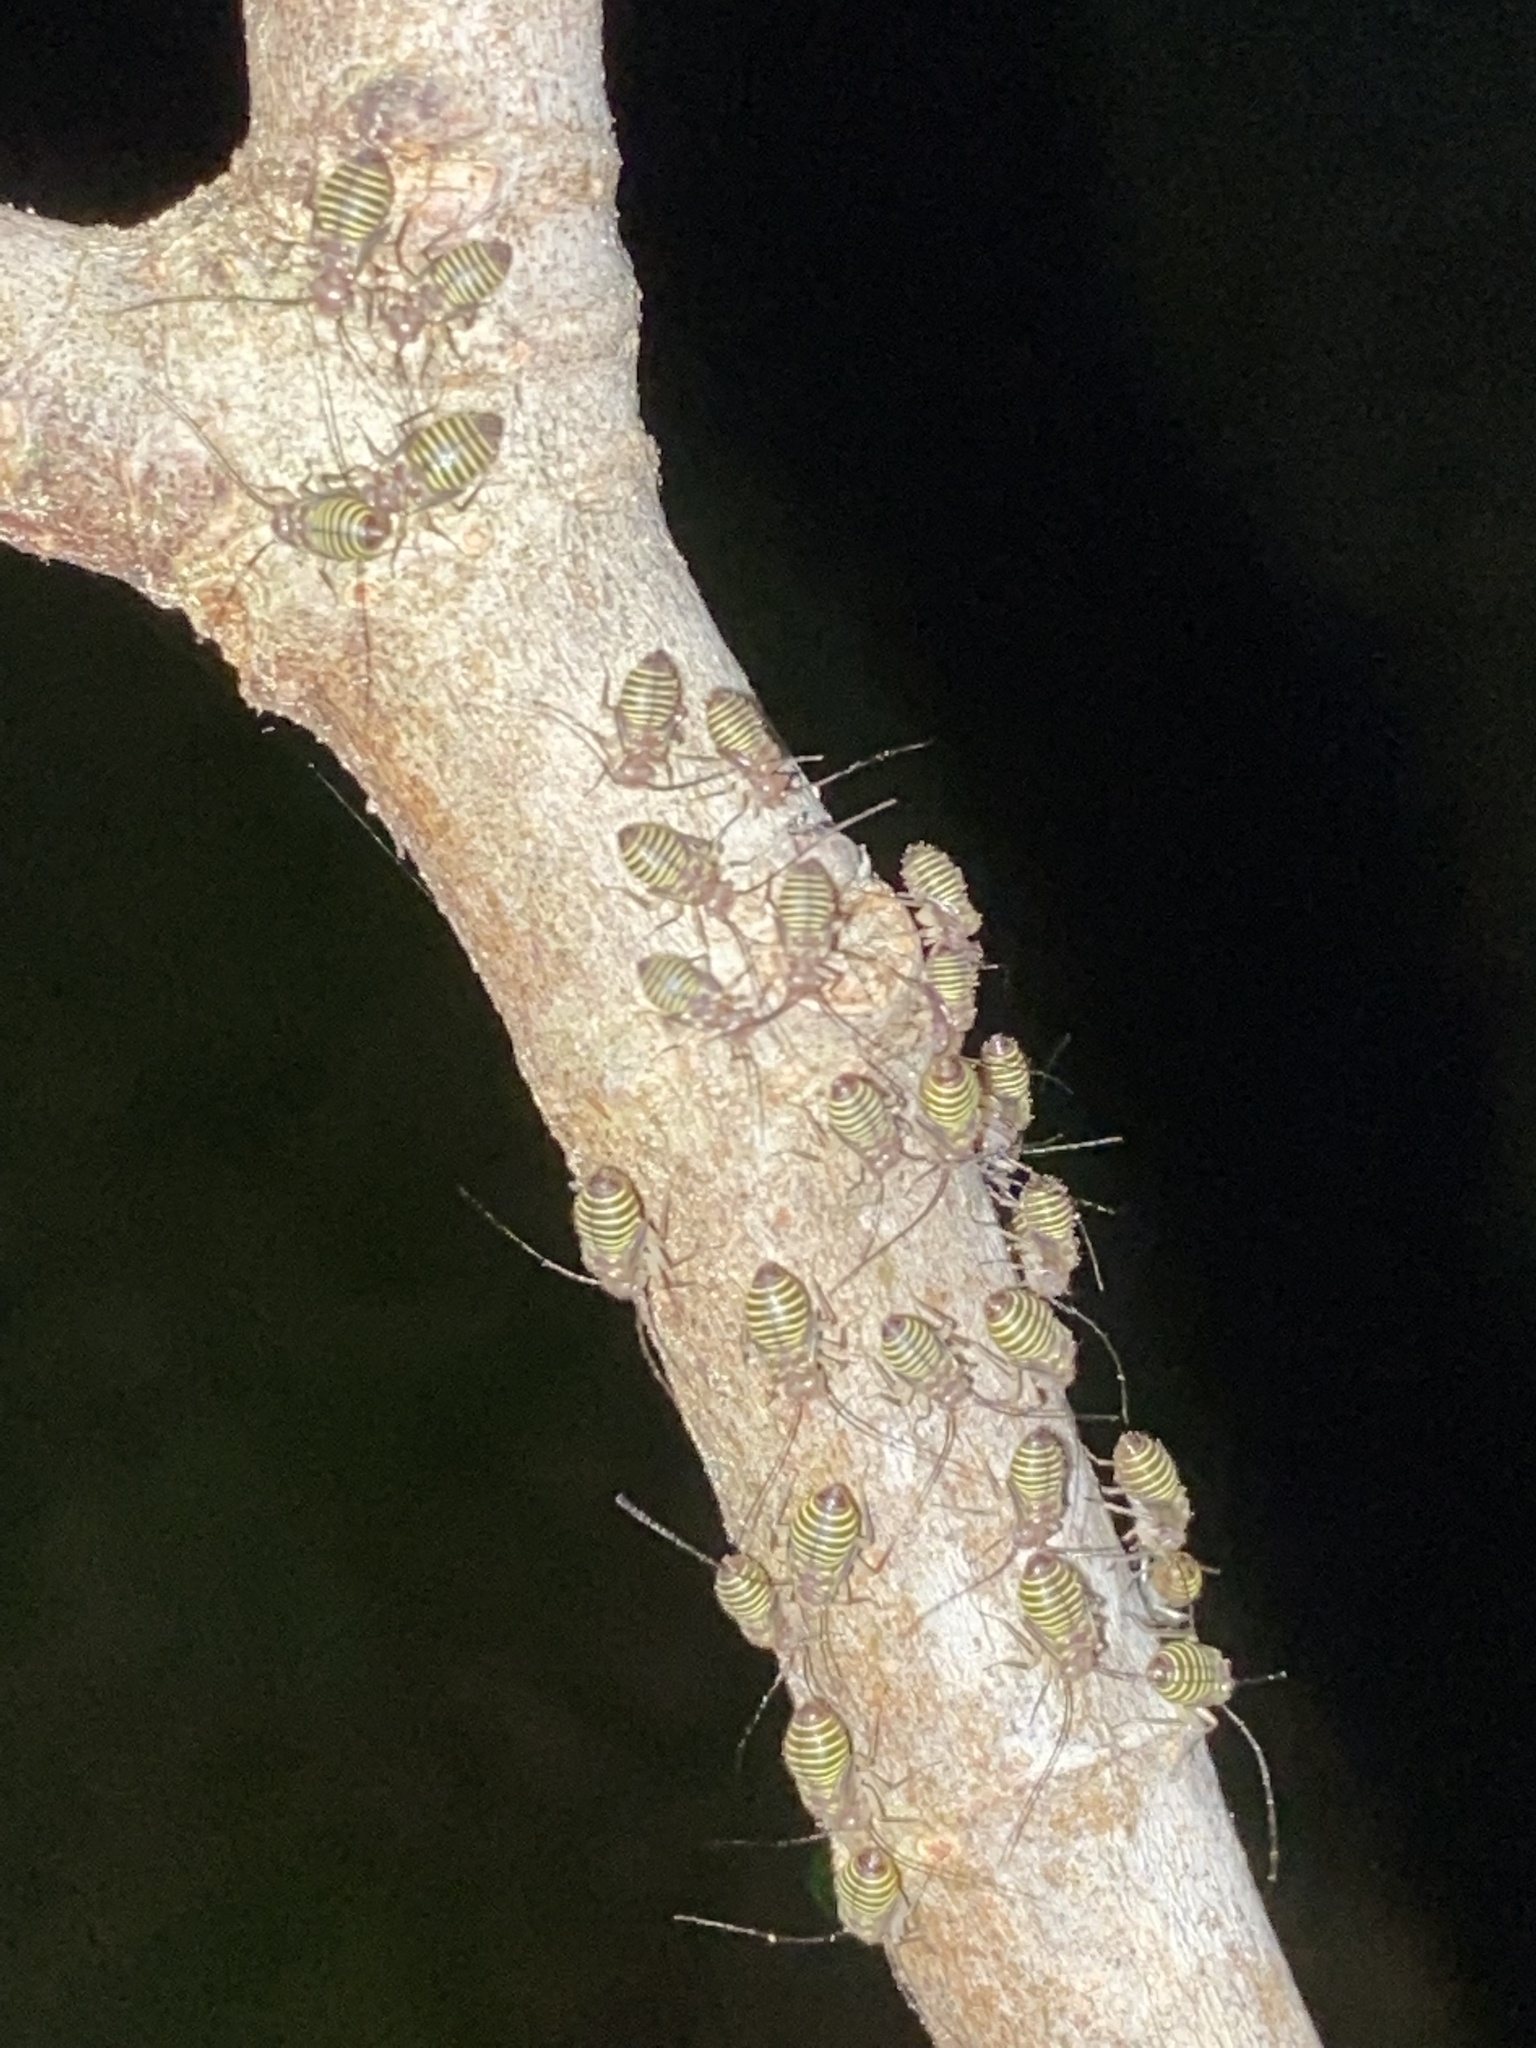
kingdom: Animalia
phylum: Arthropoda
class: Insecta
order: Psocodea
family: Psocidae
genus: Cerastipsocus
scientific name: Cerastipsocus venosus
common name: Tree cattle
